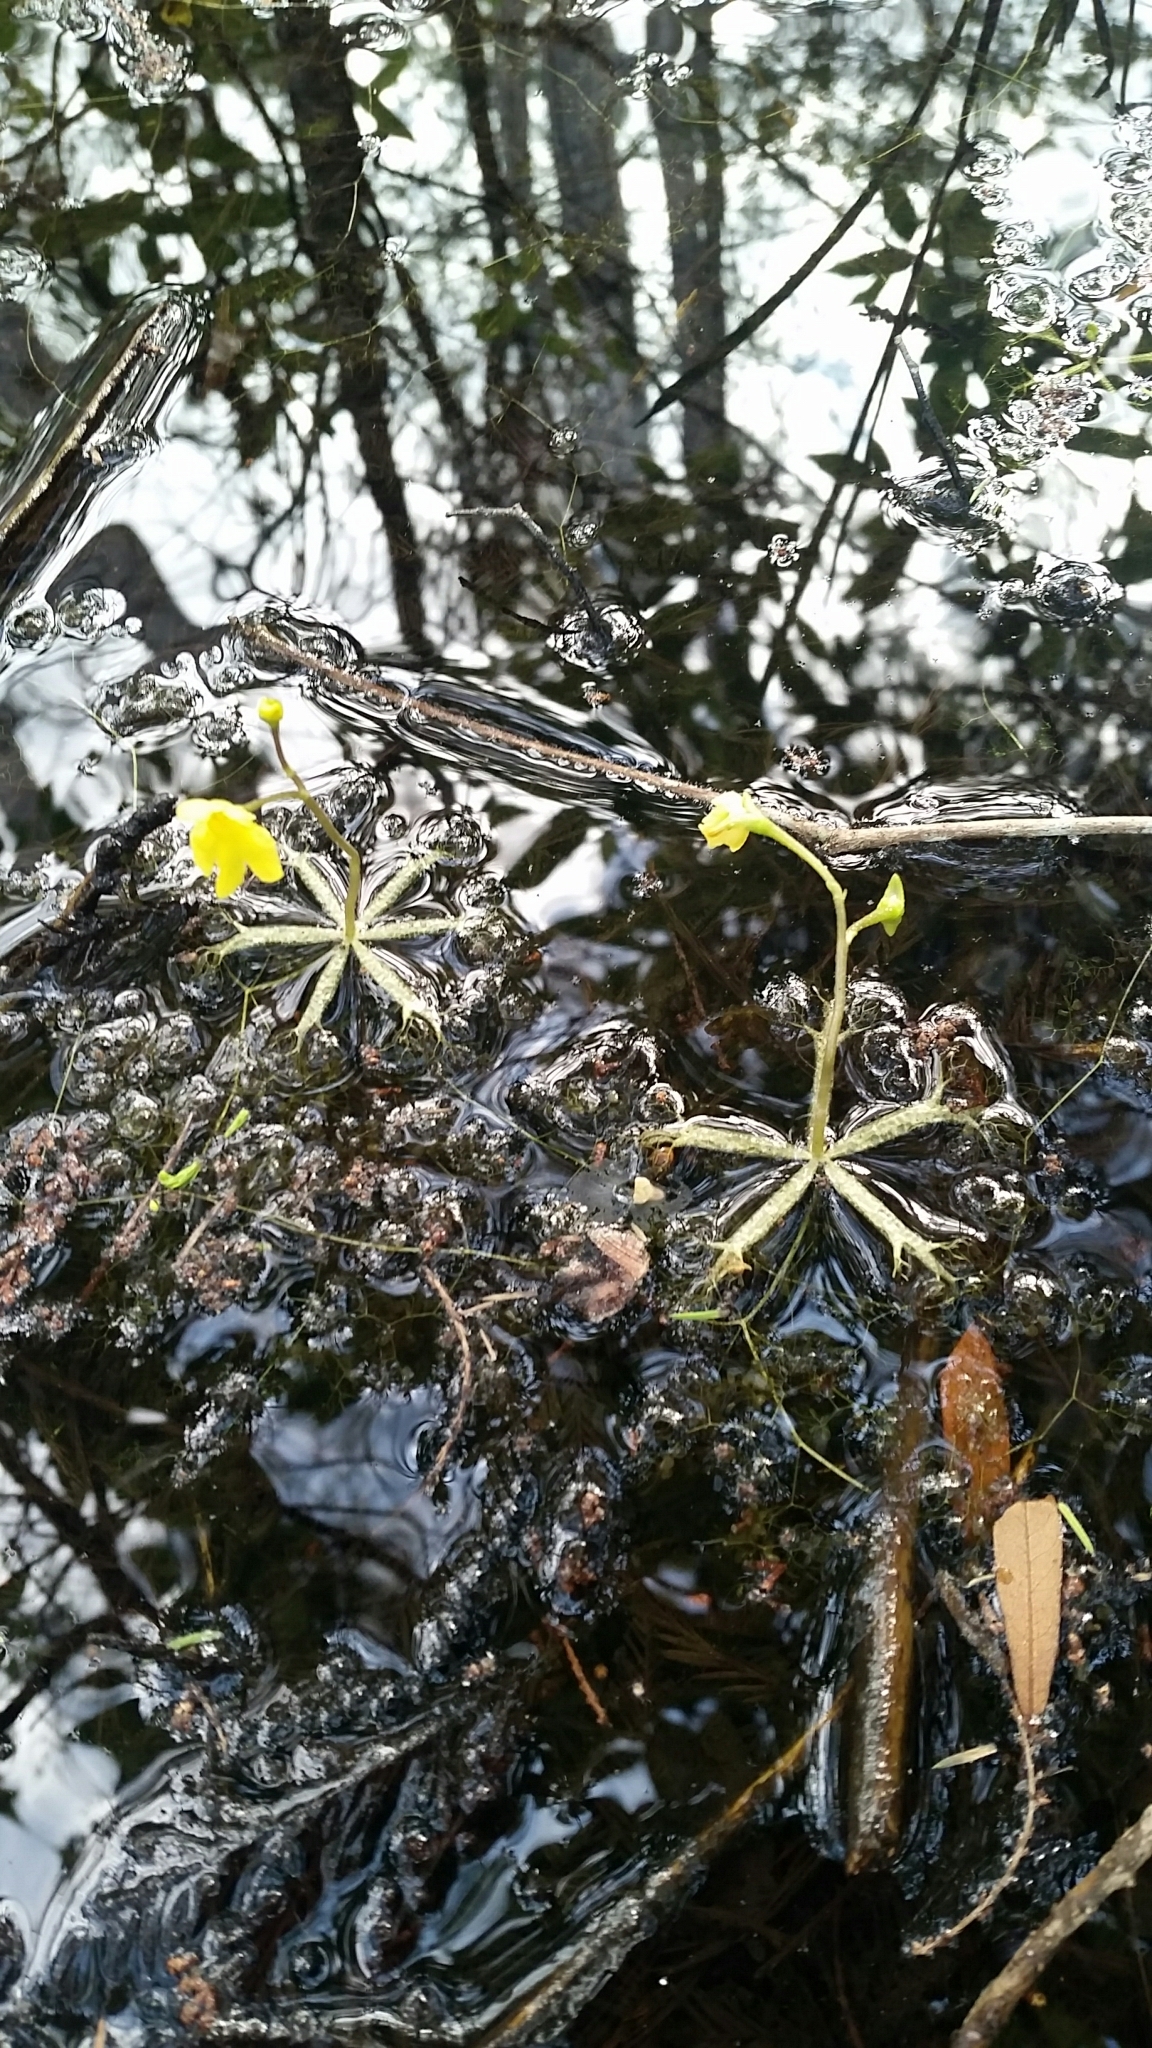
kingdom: Plantae
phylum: Tracheophyta
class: Magnoliopsida
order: Lamiales
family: Lentibulariaceae
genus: Utricularia
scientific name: Utricularia radiata
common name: Floating bladderwort
